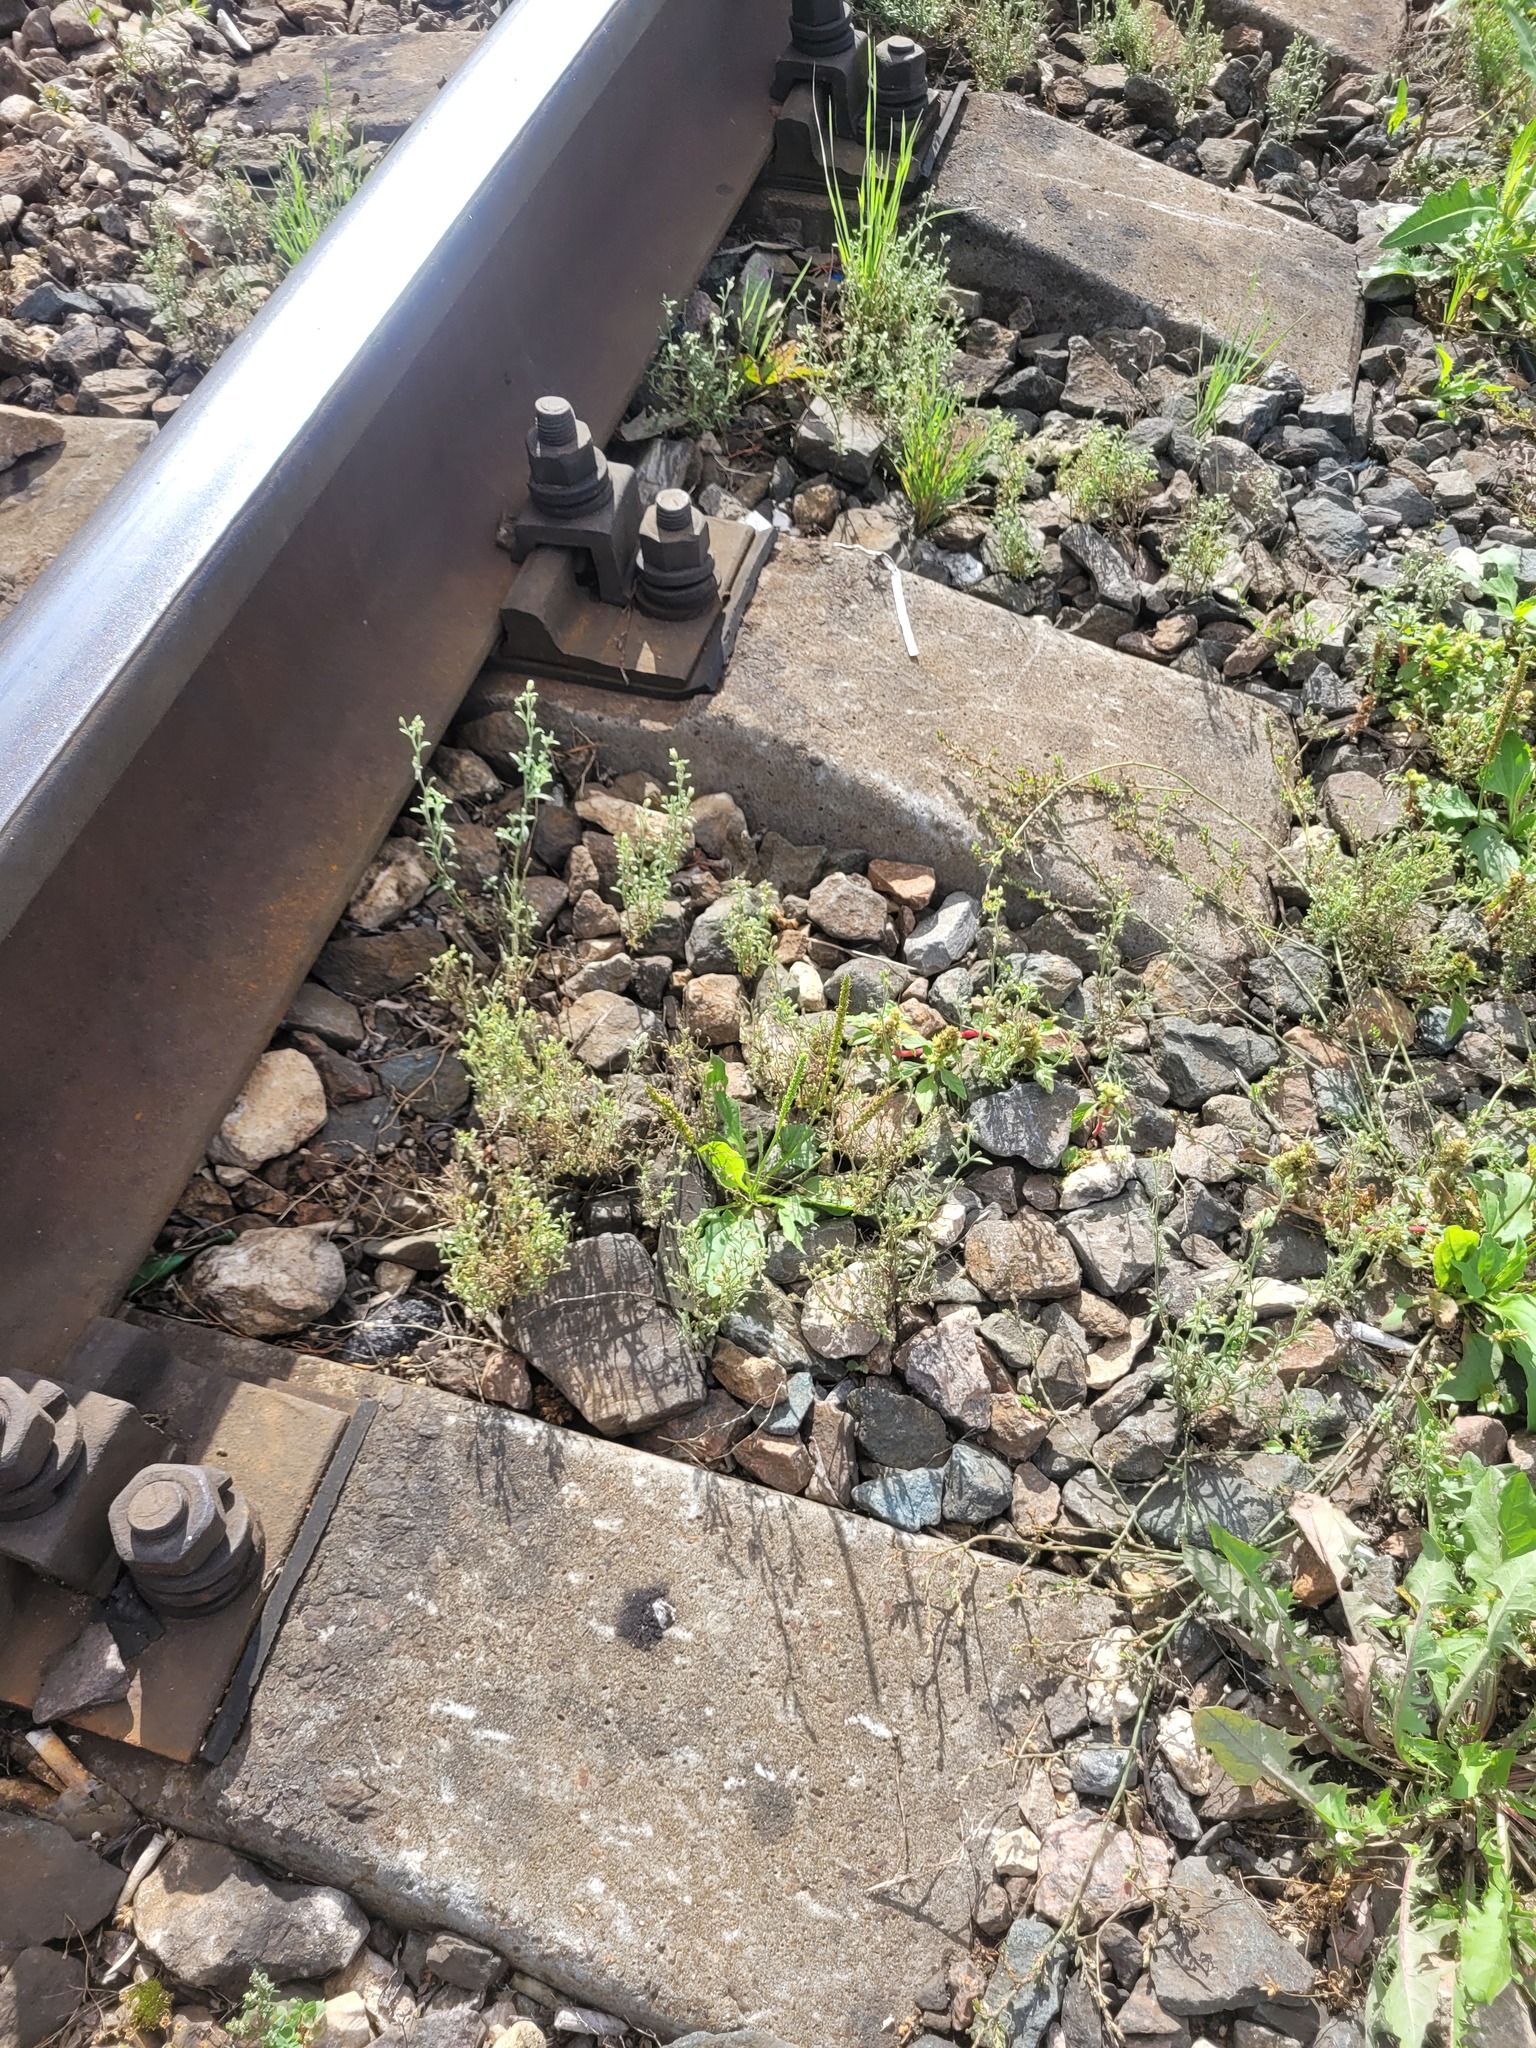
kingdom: Plantae
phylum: Tracheophyta
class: Magnoliopsida
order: Lamiales
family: Plantaginaceae
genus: Plantago
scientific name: Plantago major
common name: Common plantain
